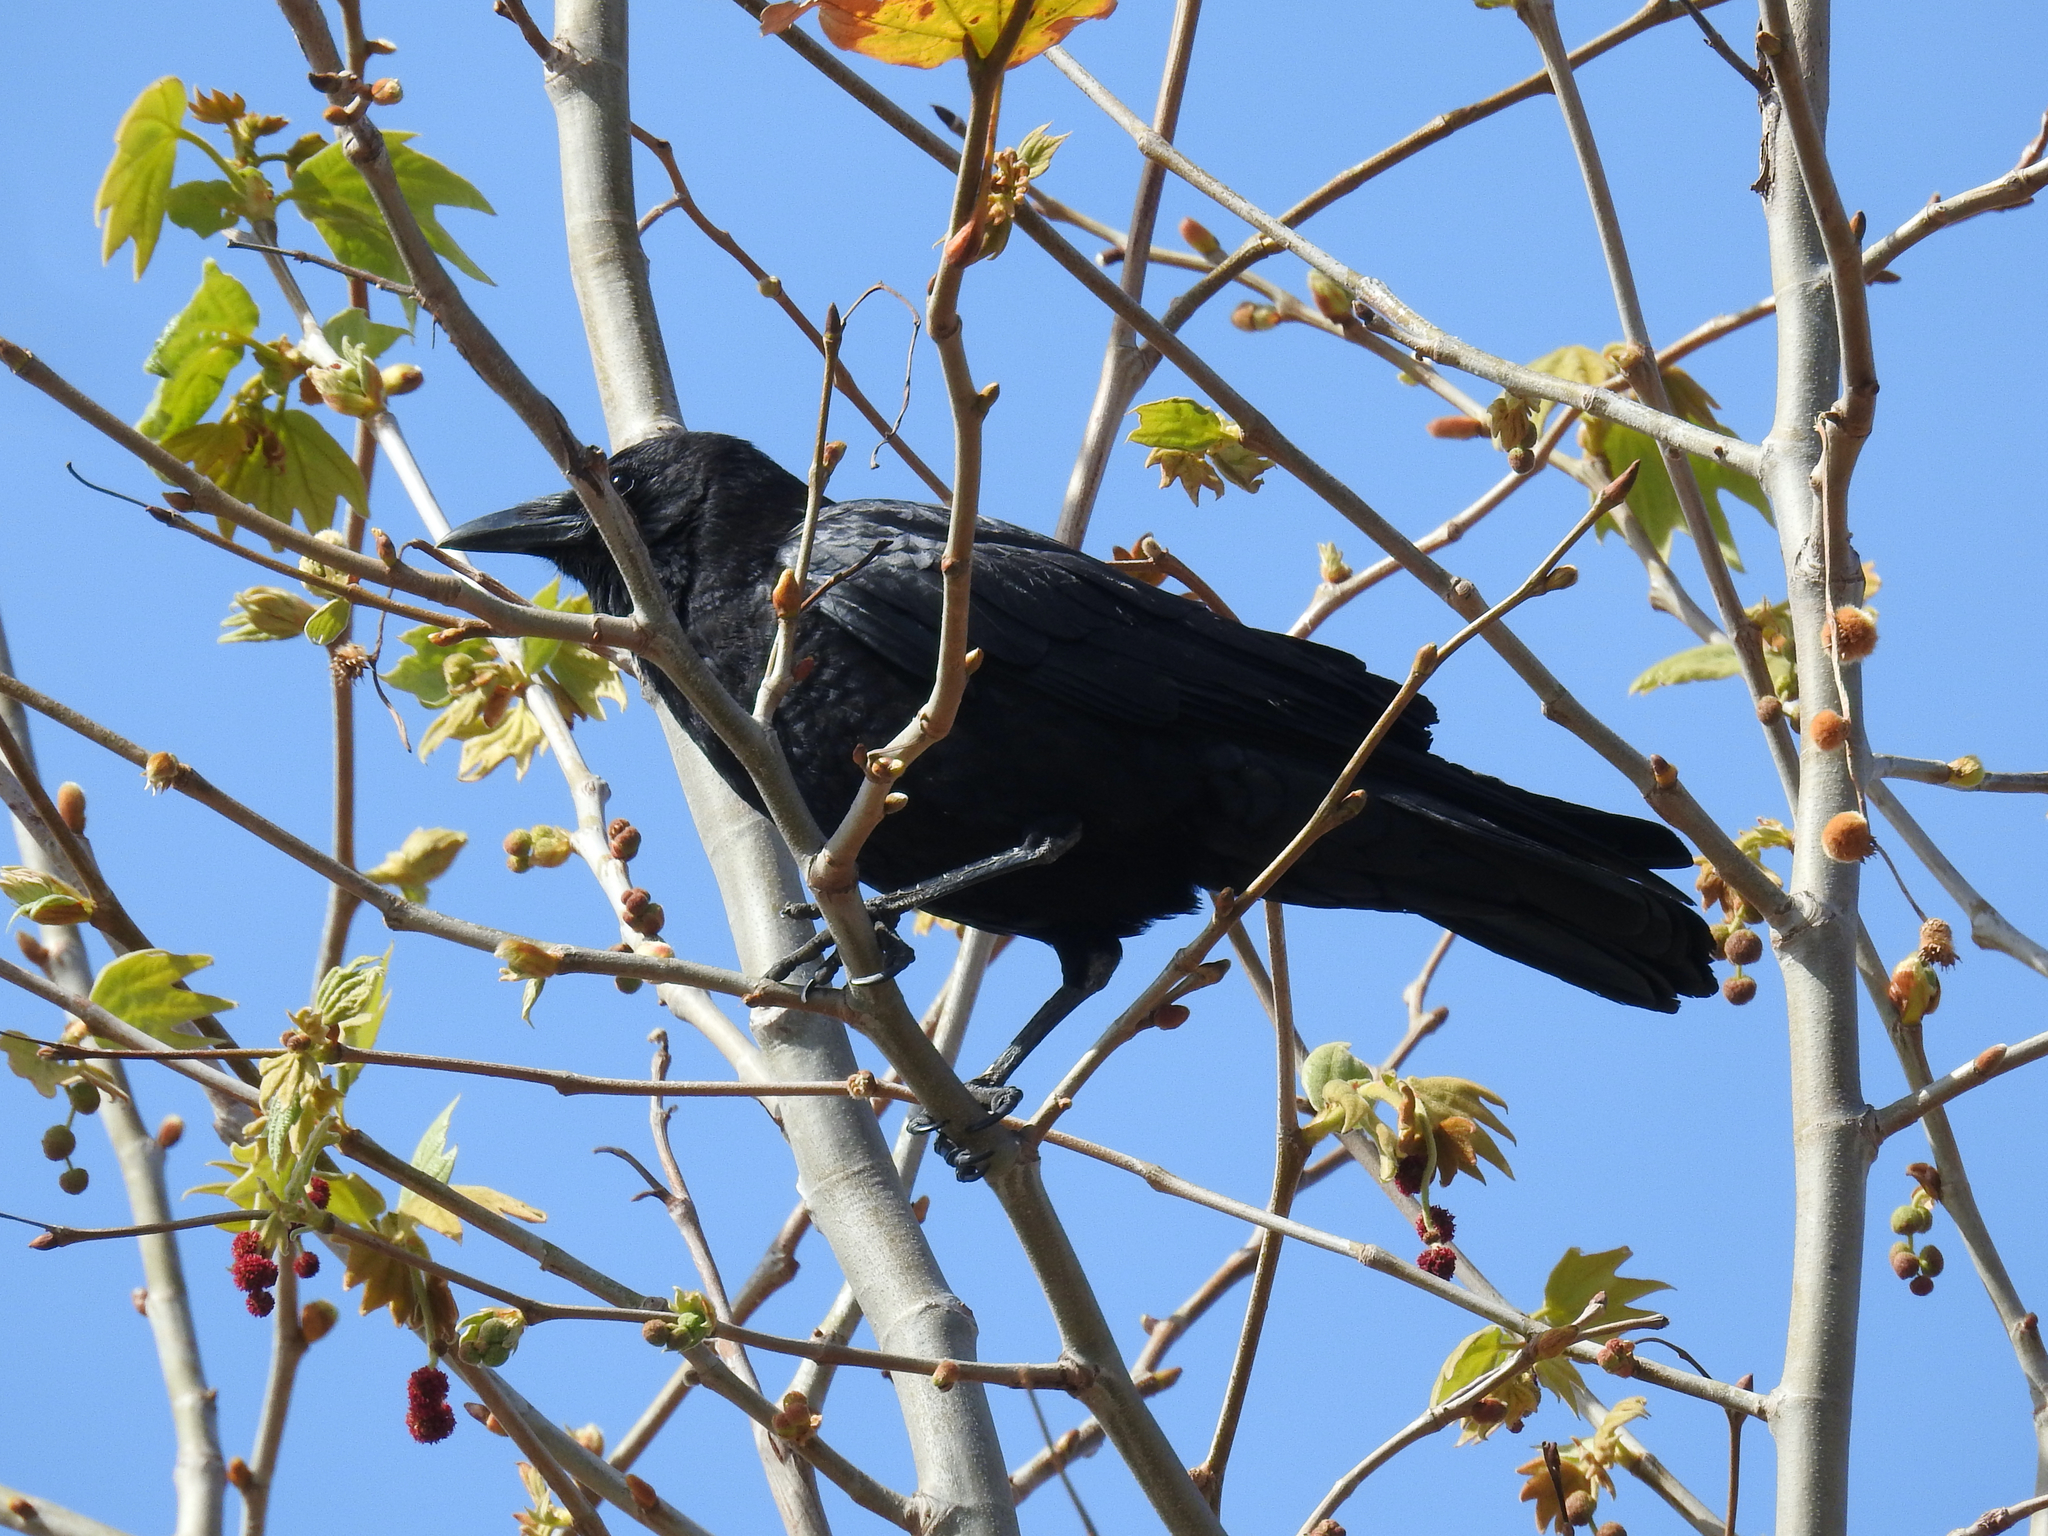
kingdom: Animalia
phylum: Chordata
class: Aves
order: Passeriformes
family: Corvidae
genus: Corvus
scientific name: Corvus brachyrhynchos
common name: American crow
